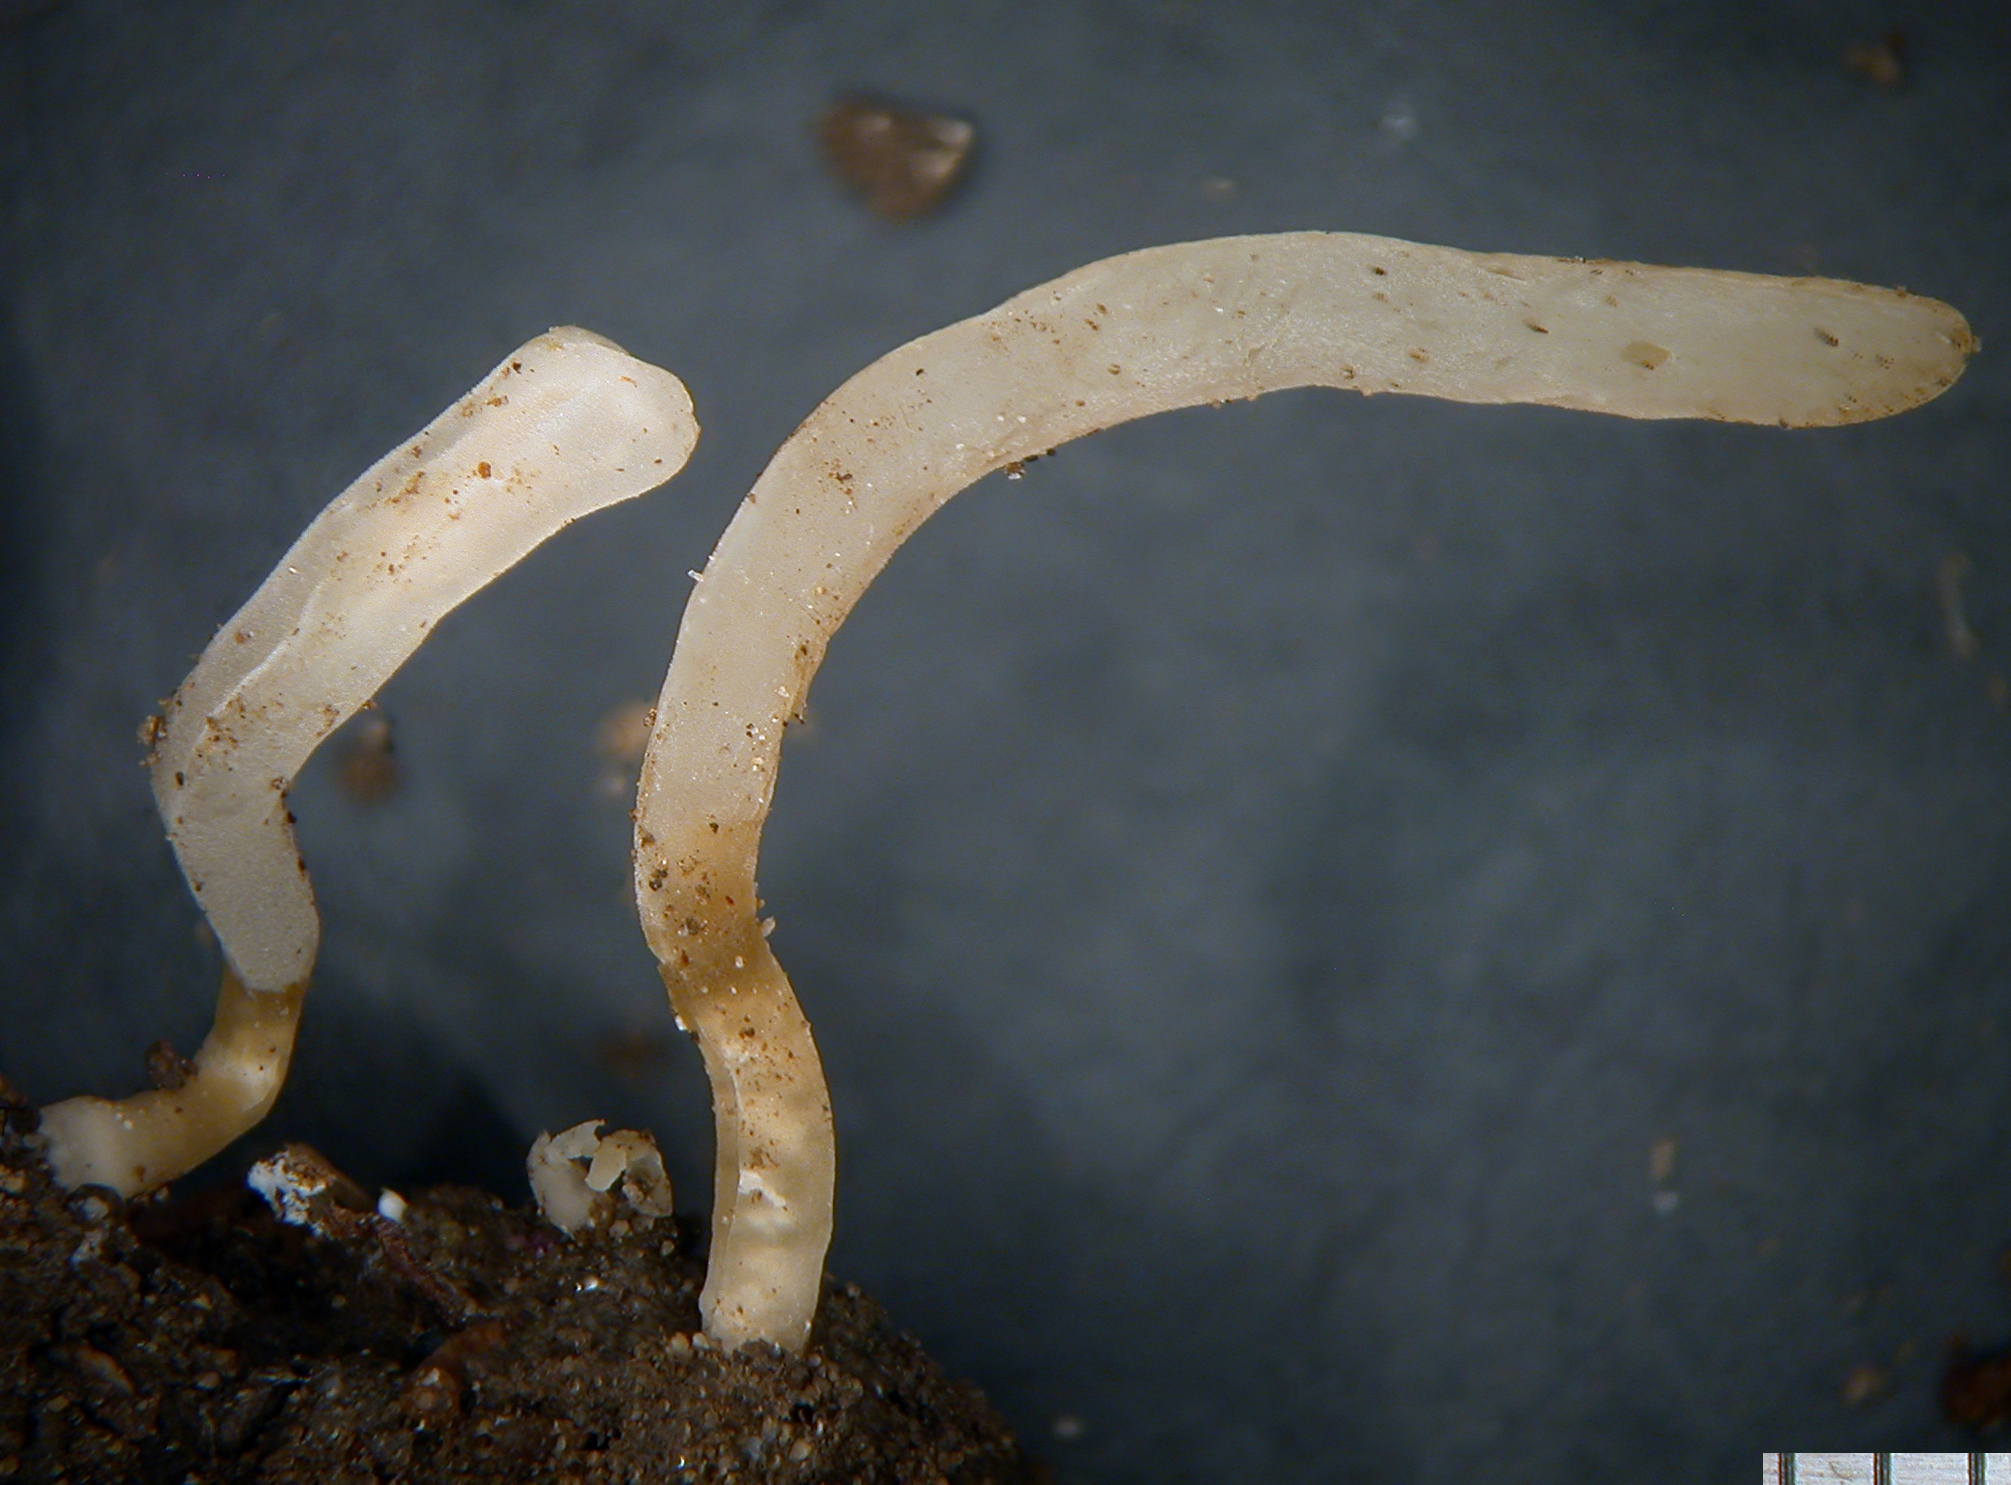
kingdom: Fungi
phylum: Basidiomycota
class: Agaricomycetes
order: Agaricales
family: Clavariaceae
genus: Clavaria
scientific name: Clavaria gibbsiae
